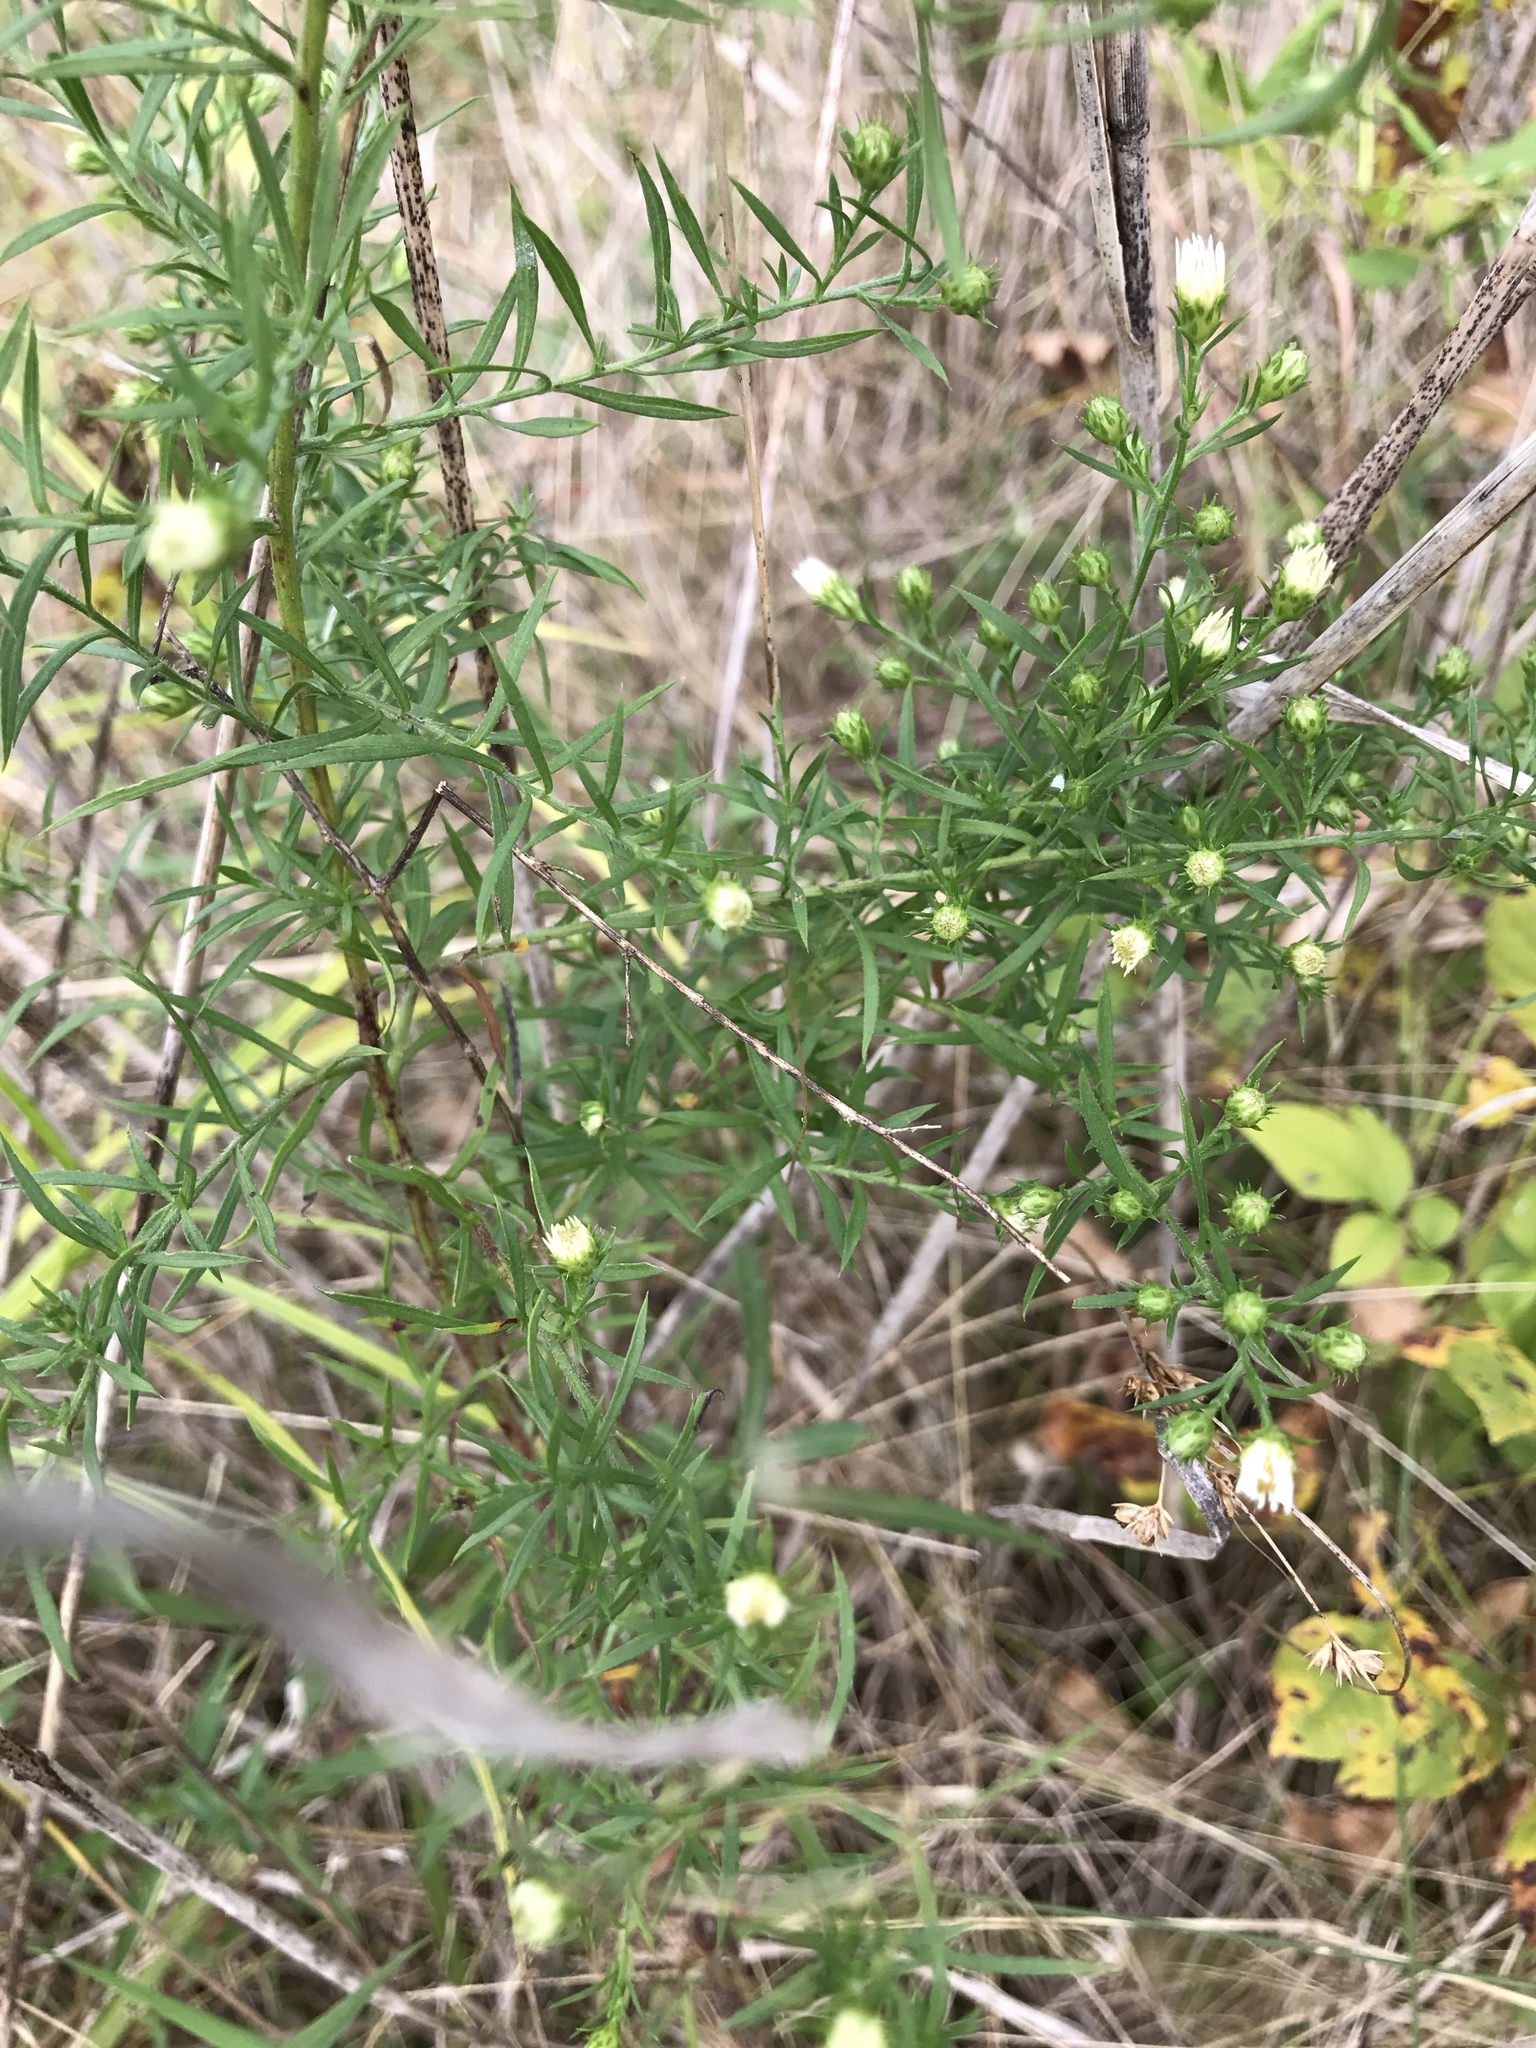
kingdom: Plantae
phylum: Tracheophyta
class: Magnoliopsida
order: Asterales
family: Asteraceae
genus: Symphyotrichum
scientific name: Symphyotrichum pilosum
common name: Awl aster
